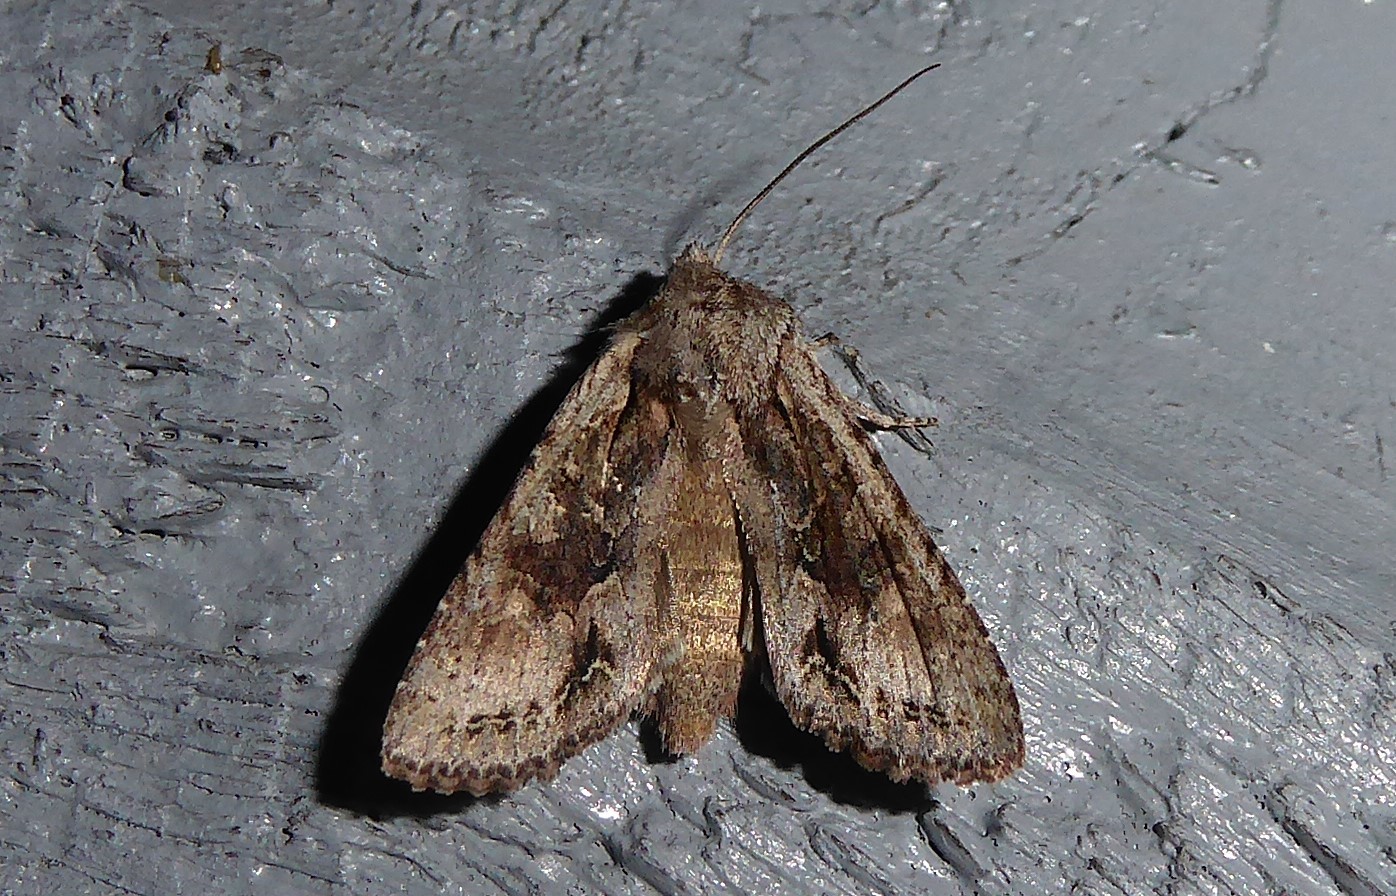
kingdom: Animalia
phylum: Arthropoda
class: Insecta
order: Lepidoptera
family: Noctuidae
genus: Ichneutica
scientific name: Ichneutica mutans
